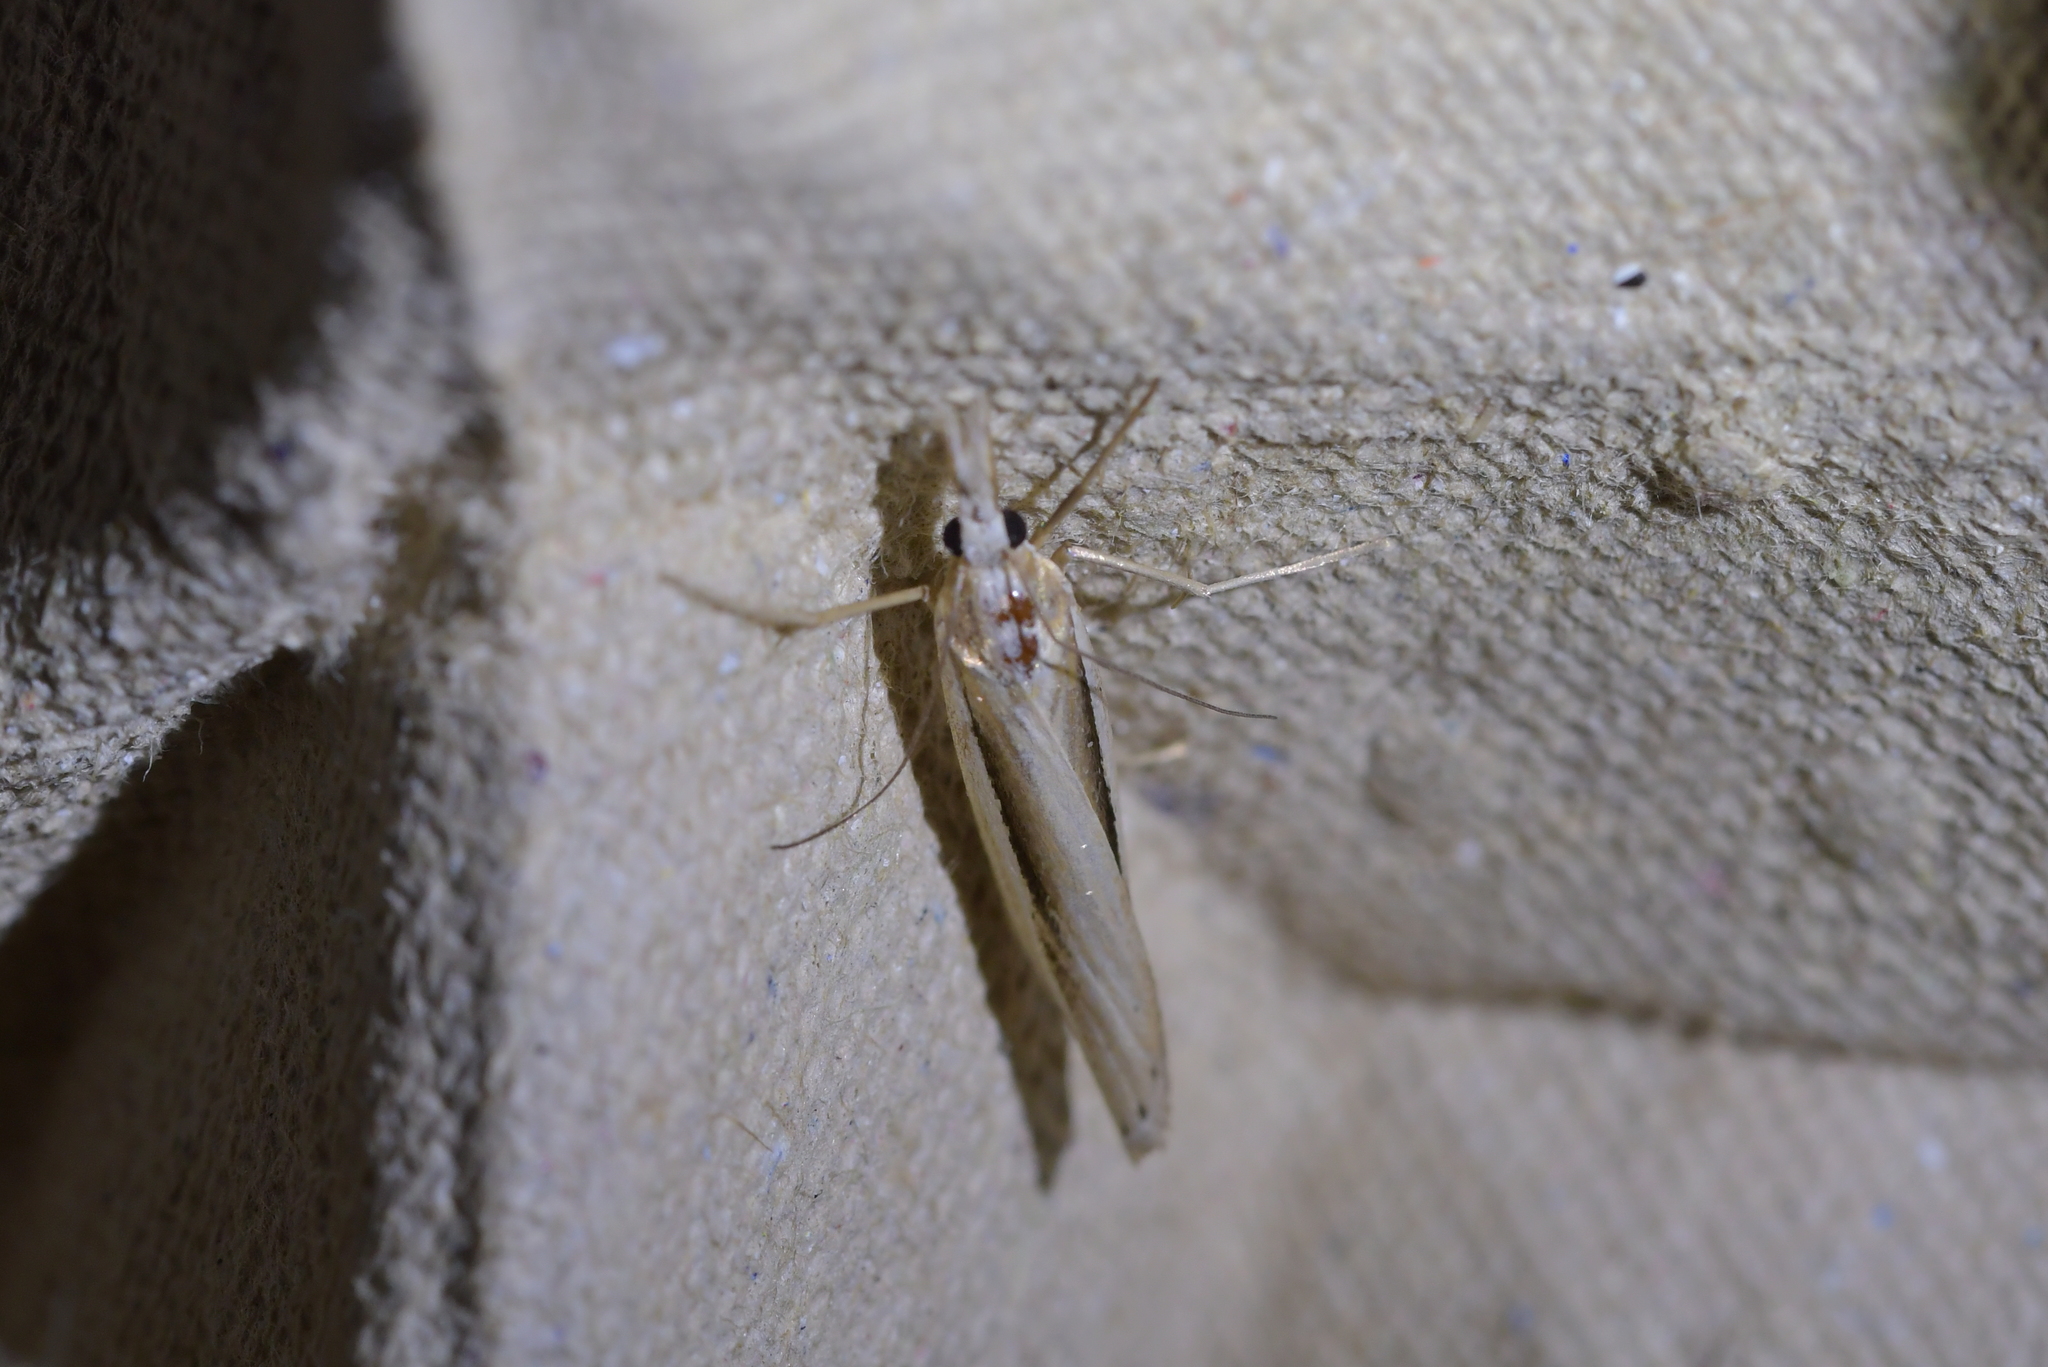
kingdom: Animalia
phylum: Arthropoda
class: Insecta
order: Lepidoptera
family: Crambidae
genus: Orocrambus
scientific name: Orocrambus ramosellus
